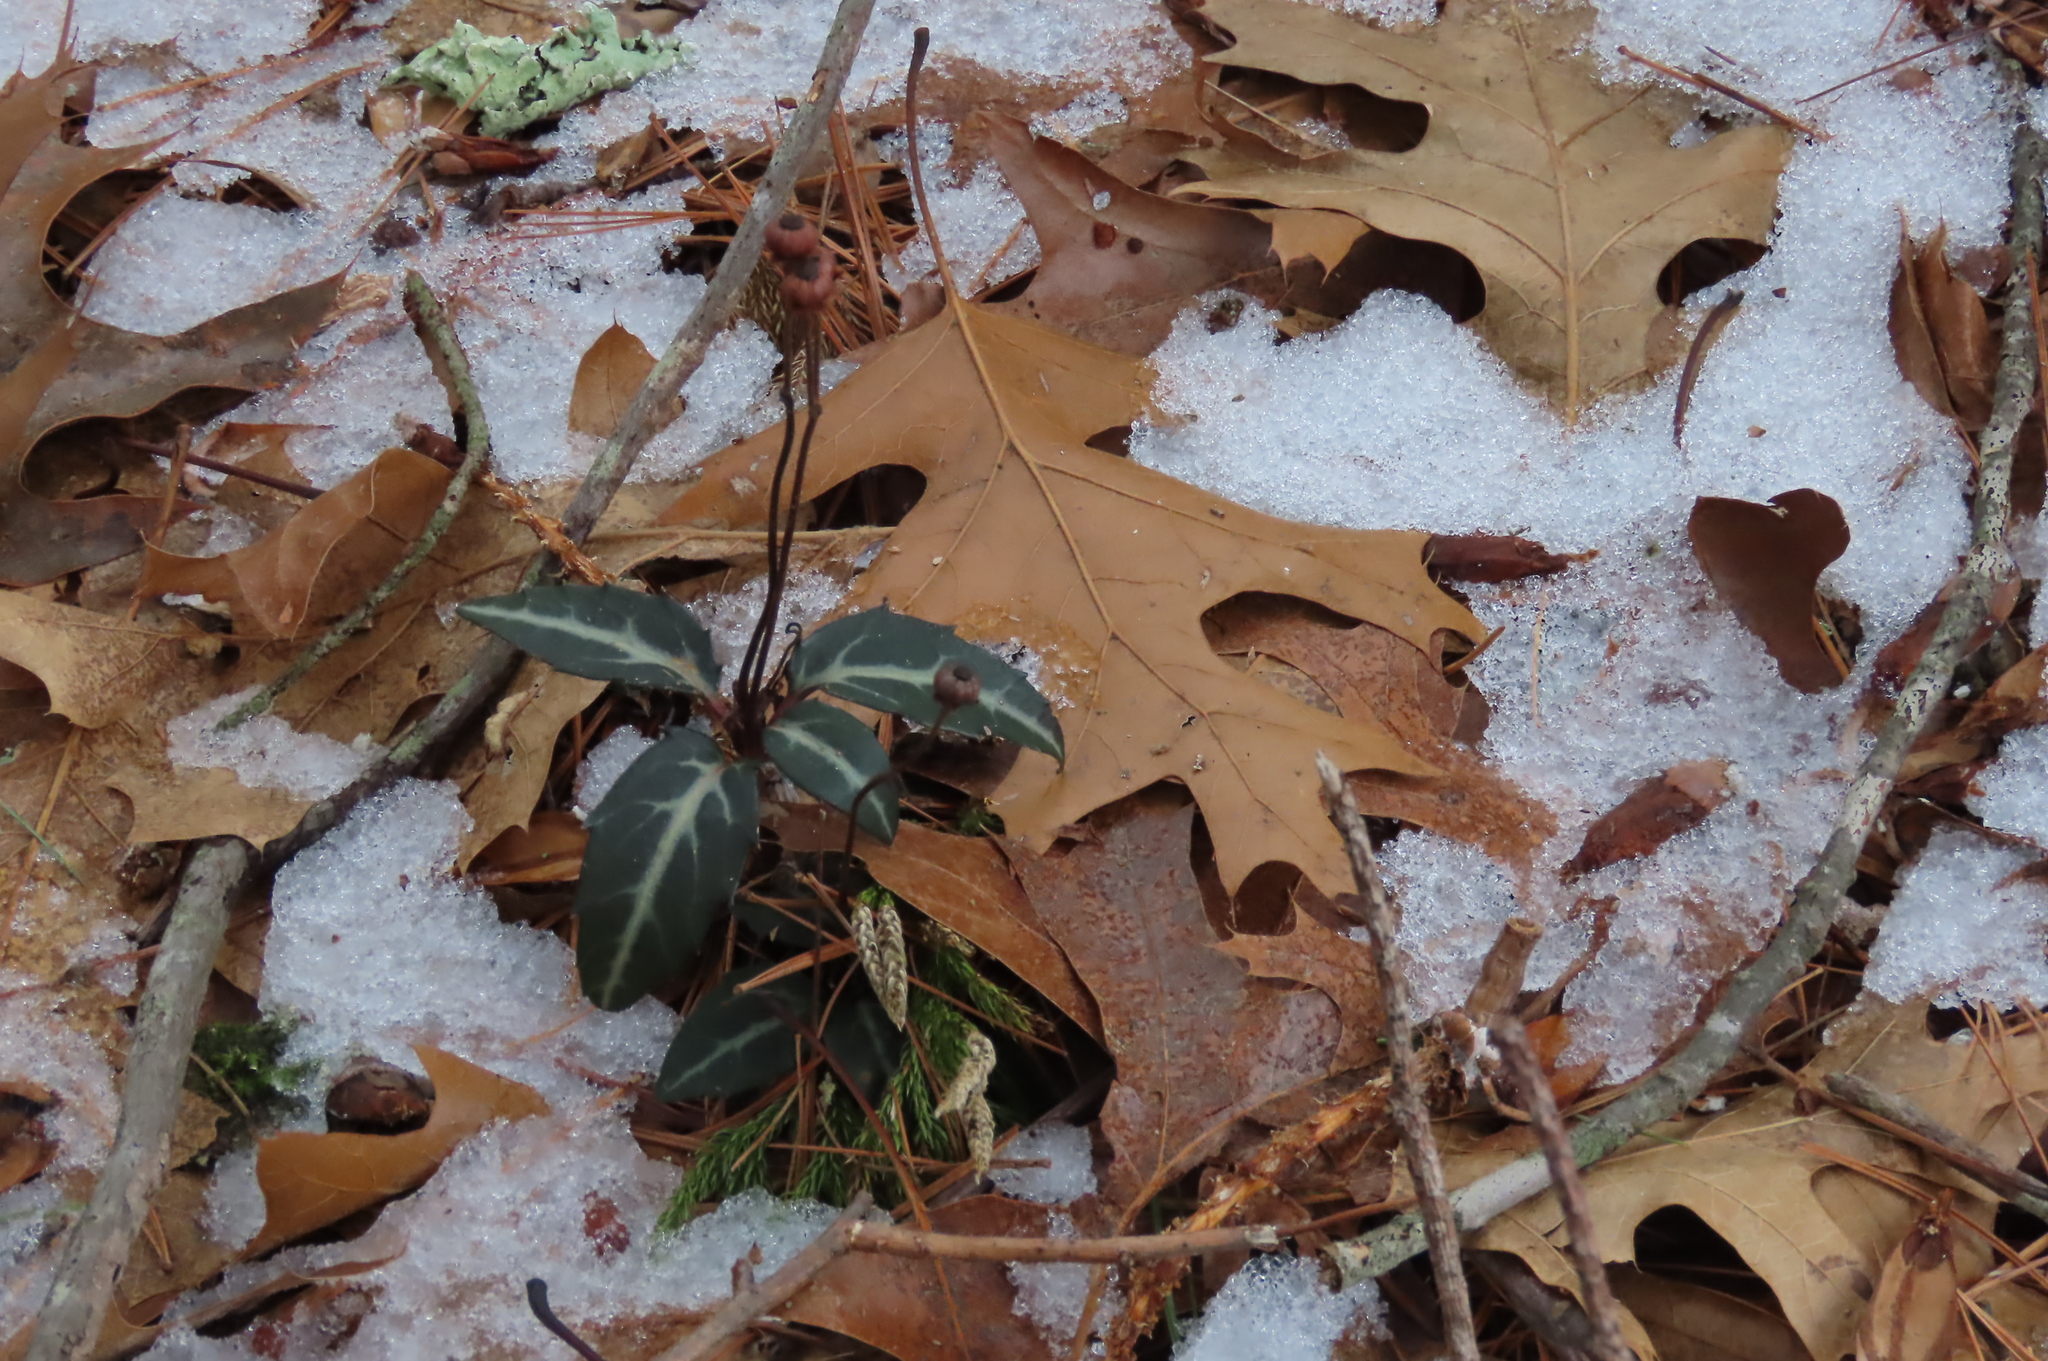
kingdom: Plantae
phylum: Tracheophyta
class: Magnoliopsida
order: Ericales
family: Ericaceae
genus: Chimaphila
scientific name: Chimaphila maculata
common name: Spotted pipsissewa
